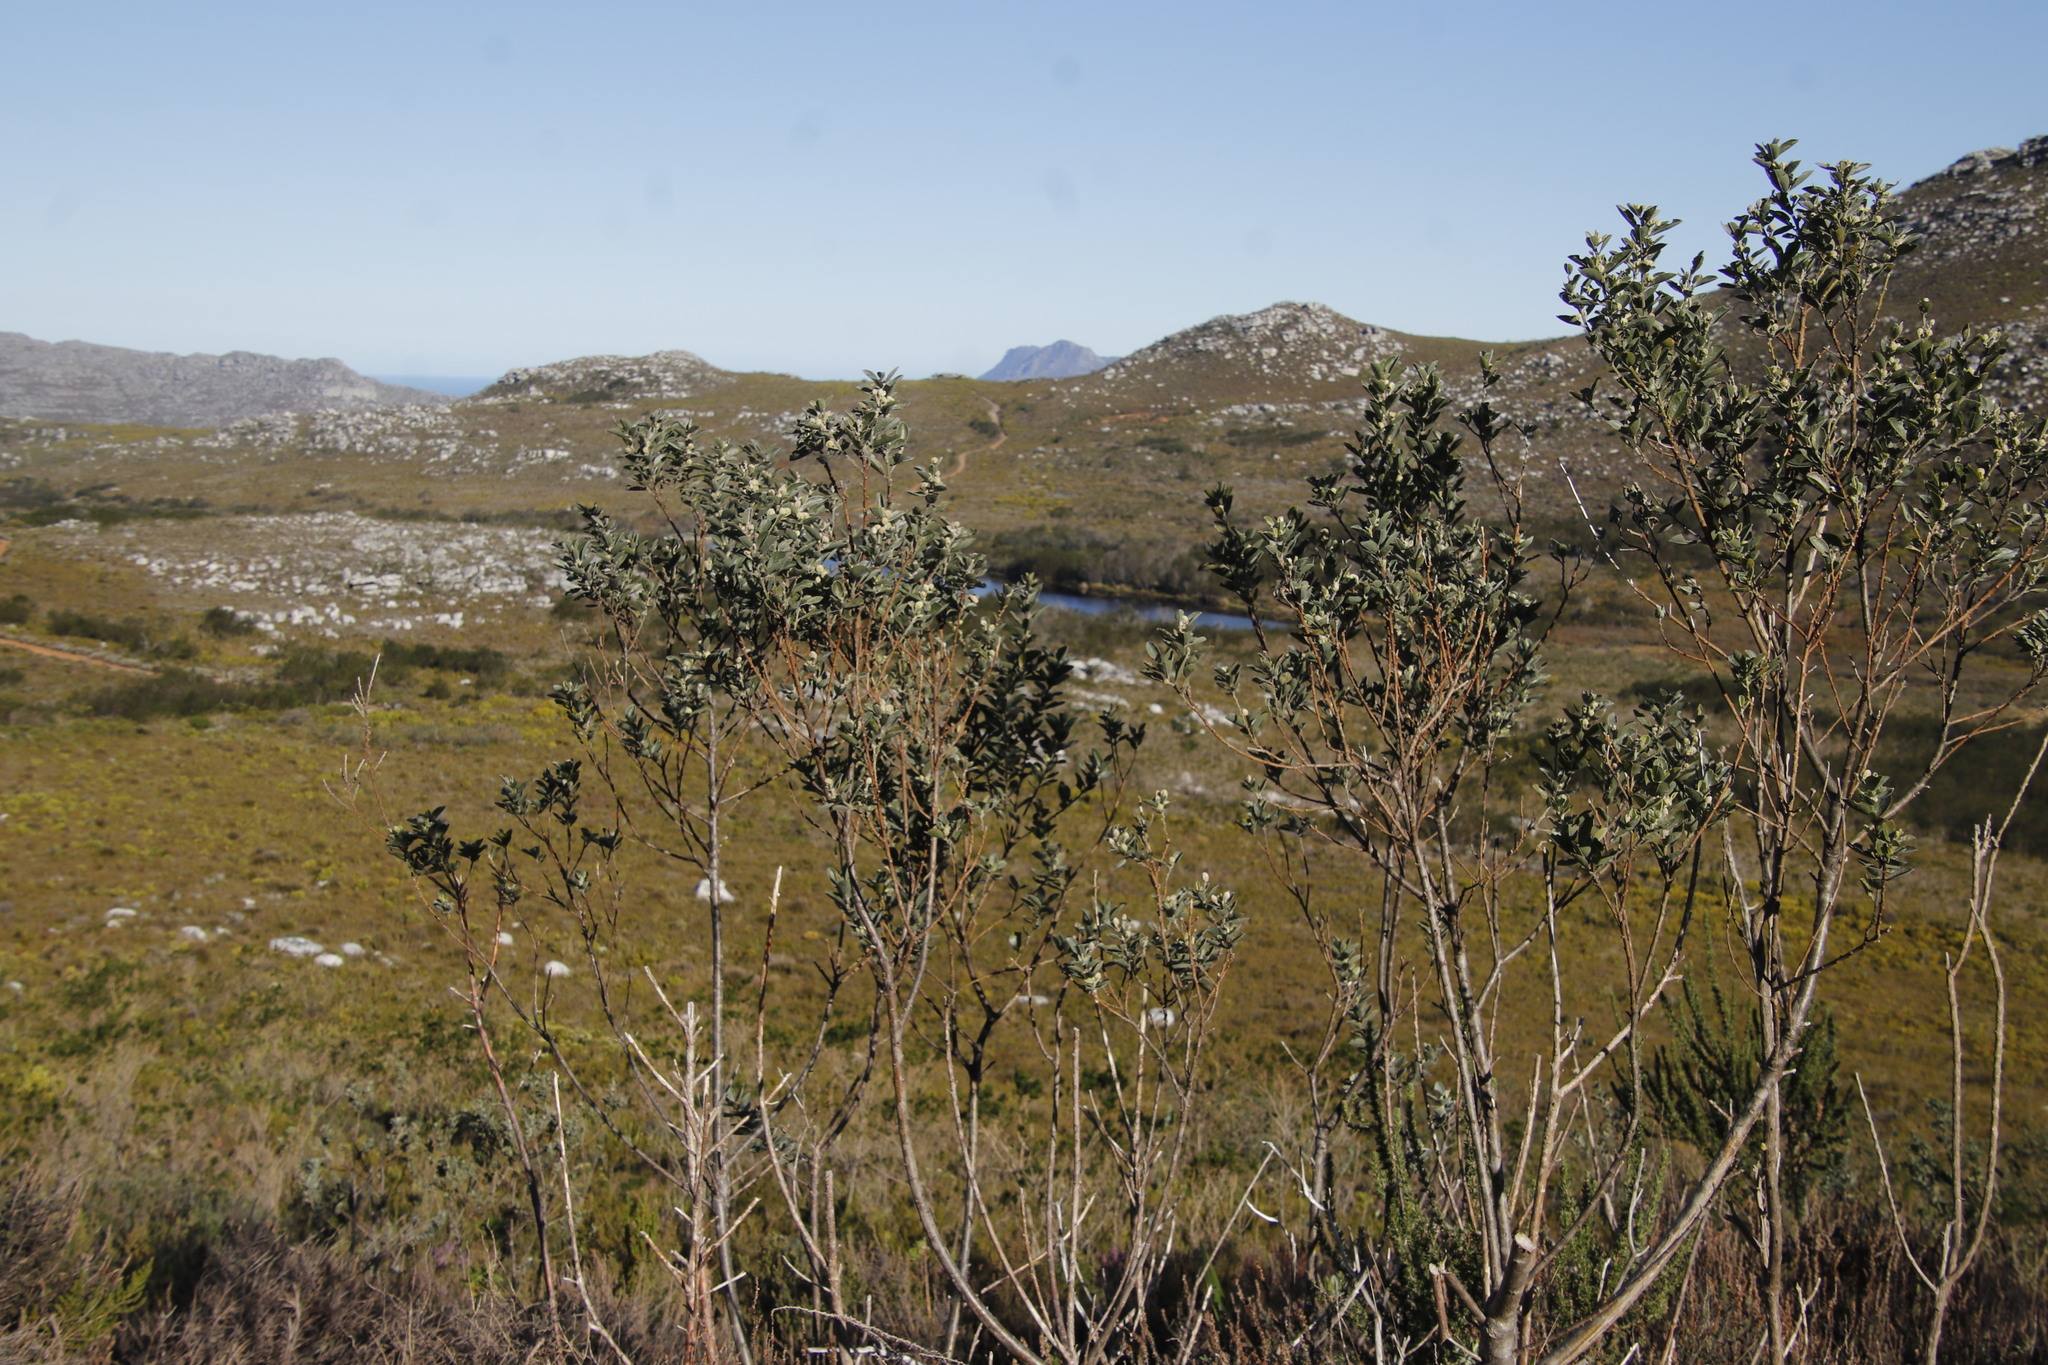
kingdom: Plantae
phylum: Tracheophyta
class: Magnoliopsida
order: Fabales
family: Fabaceae
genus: Podalyria
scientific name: Podalyria calyptrata
